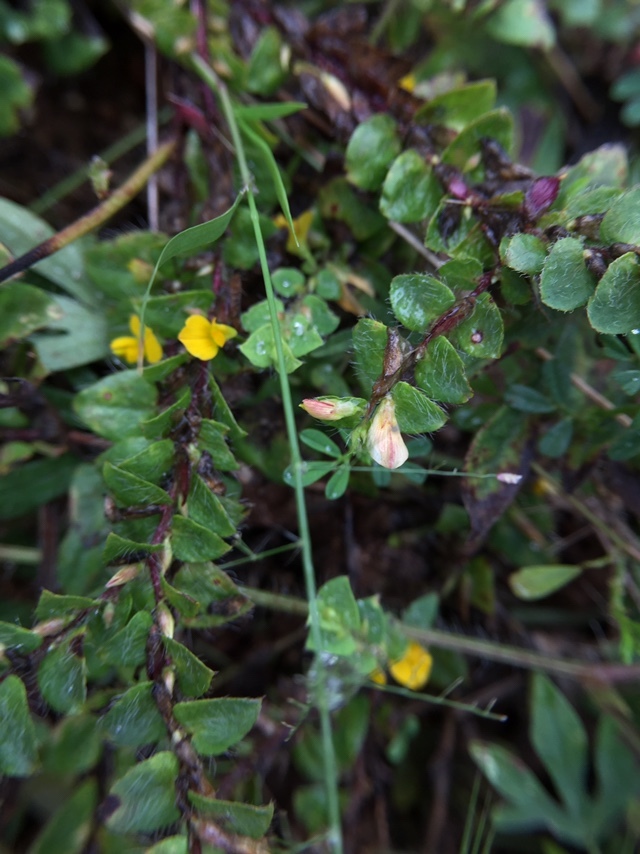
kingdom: Plantae
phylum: Tracheophyta
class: Magnoliopsida
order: Fabales
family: Fabaceae
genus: Crotalaria
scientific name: Crotalaria hebecarpa
